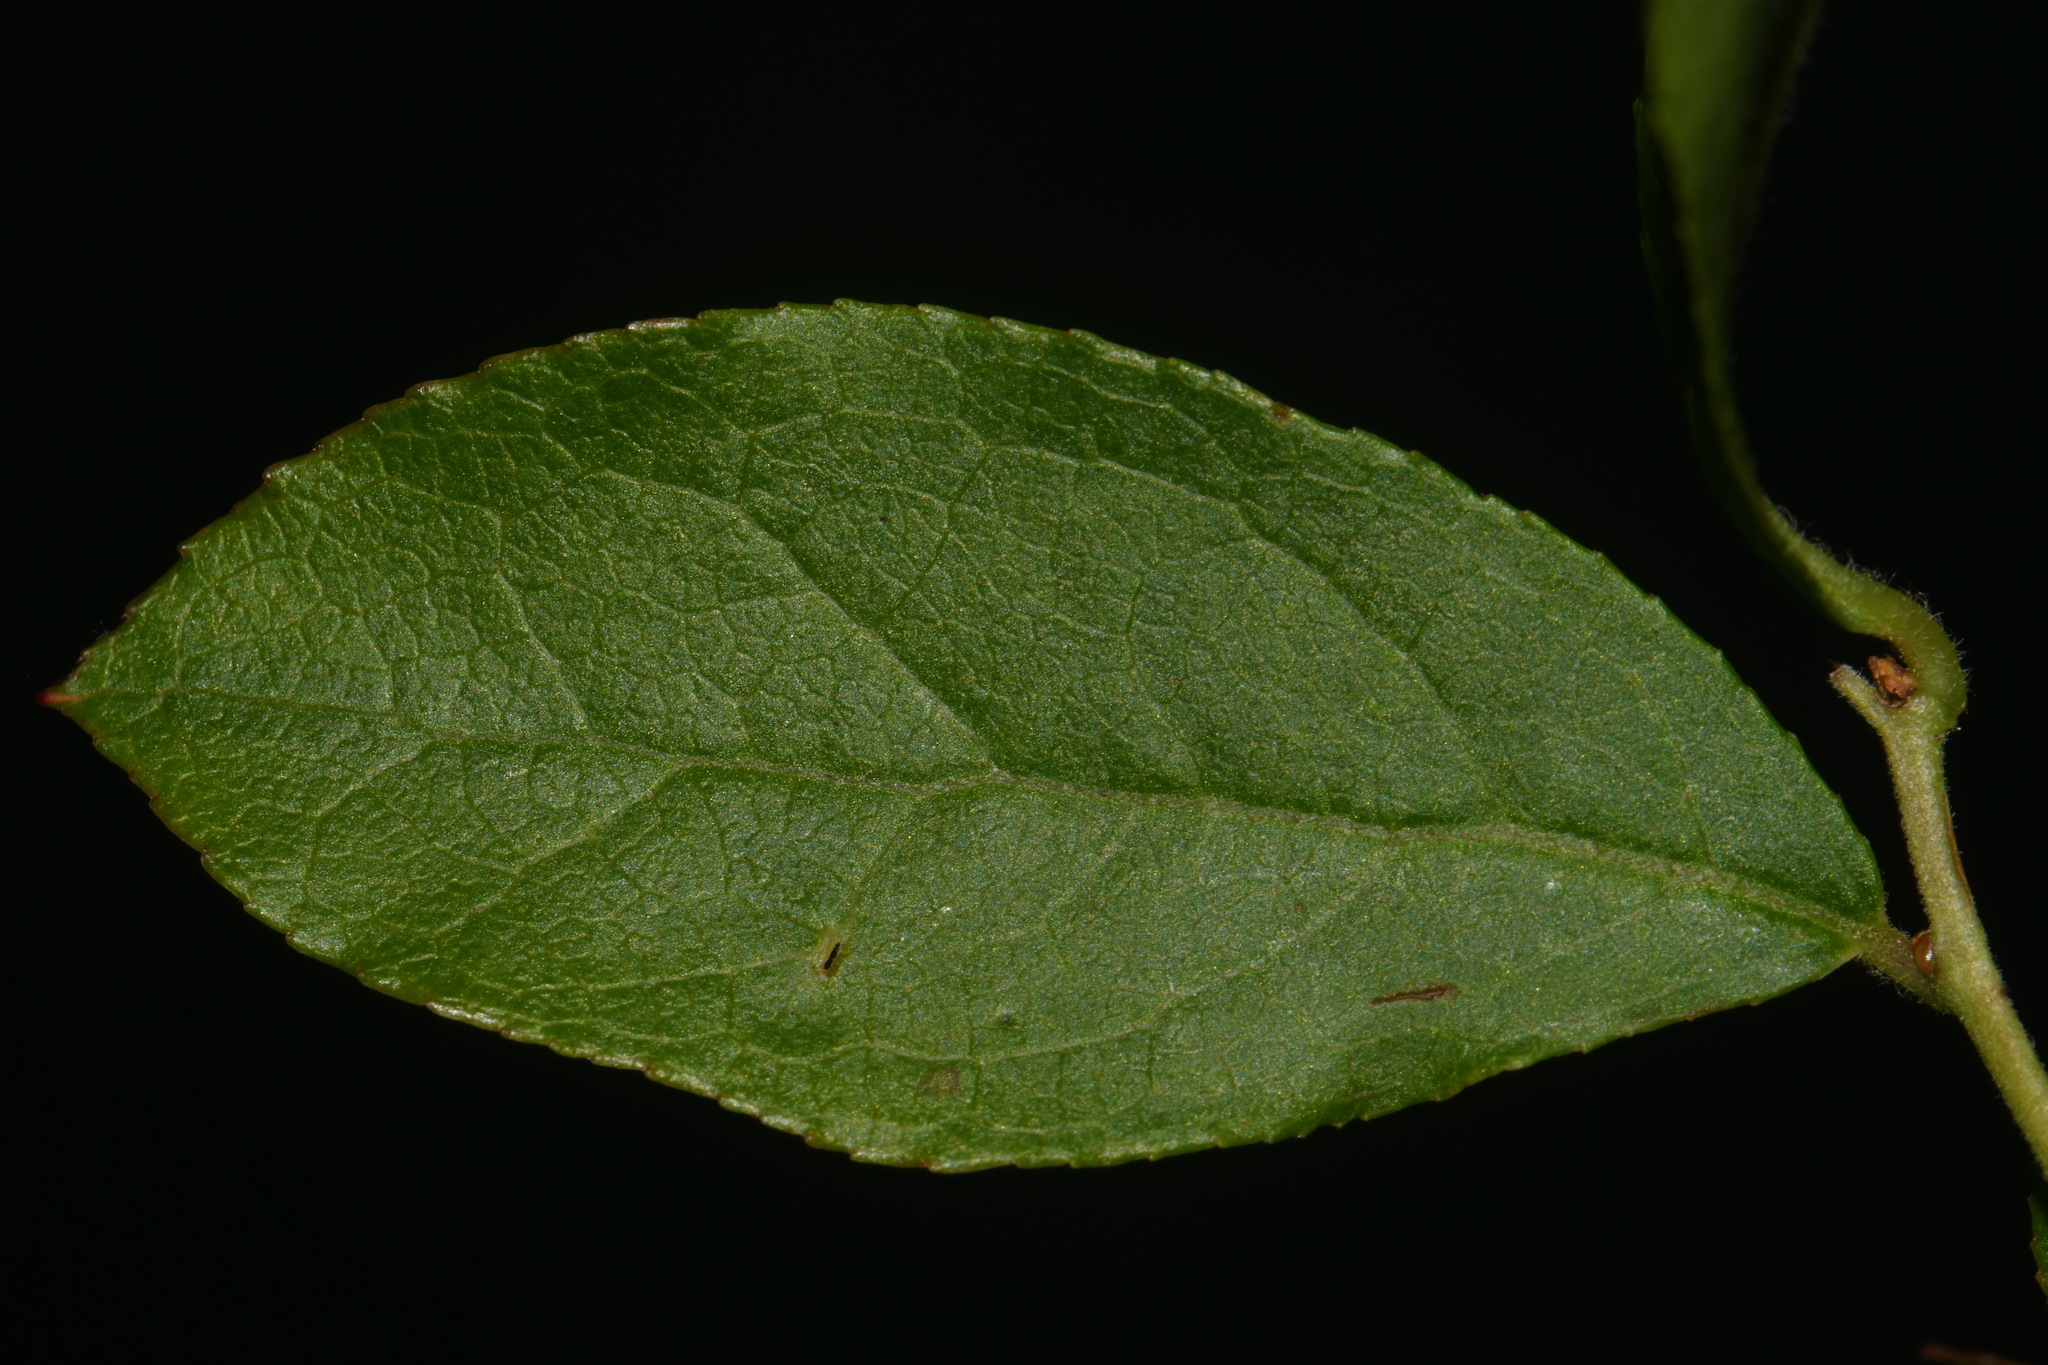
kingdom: Plantae
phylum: Tracheophyta
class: Magnoliopsida
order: Ericales
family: Ericaceae
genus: Eubotrys
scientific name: Eubotrys racemosa
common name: Fetterbush
